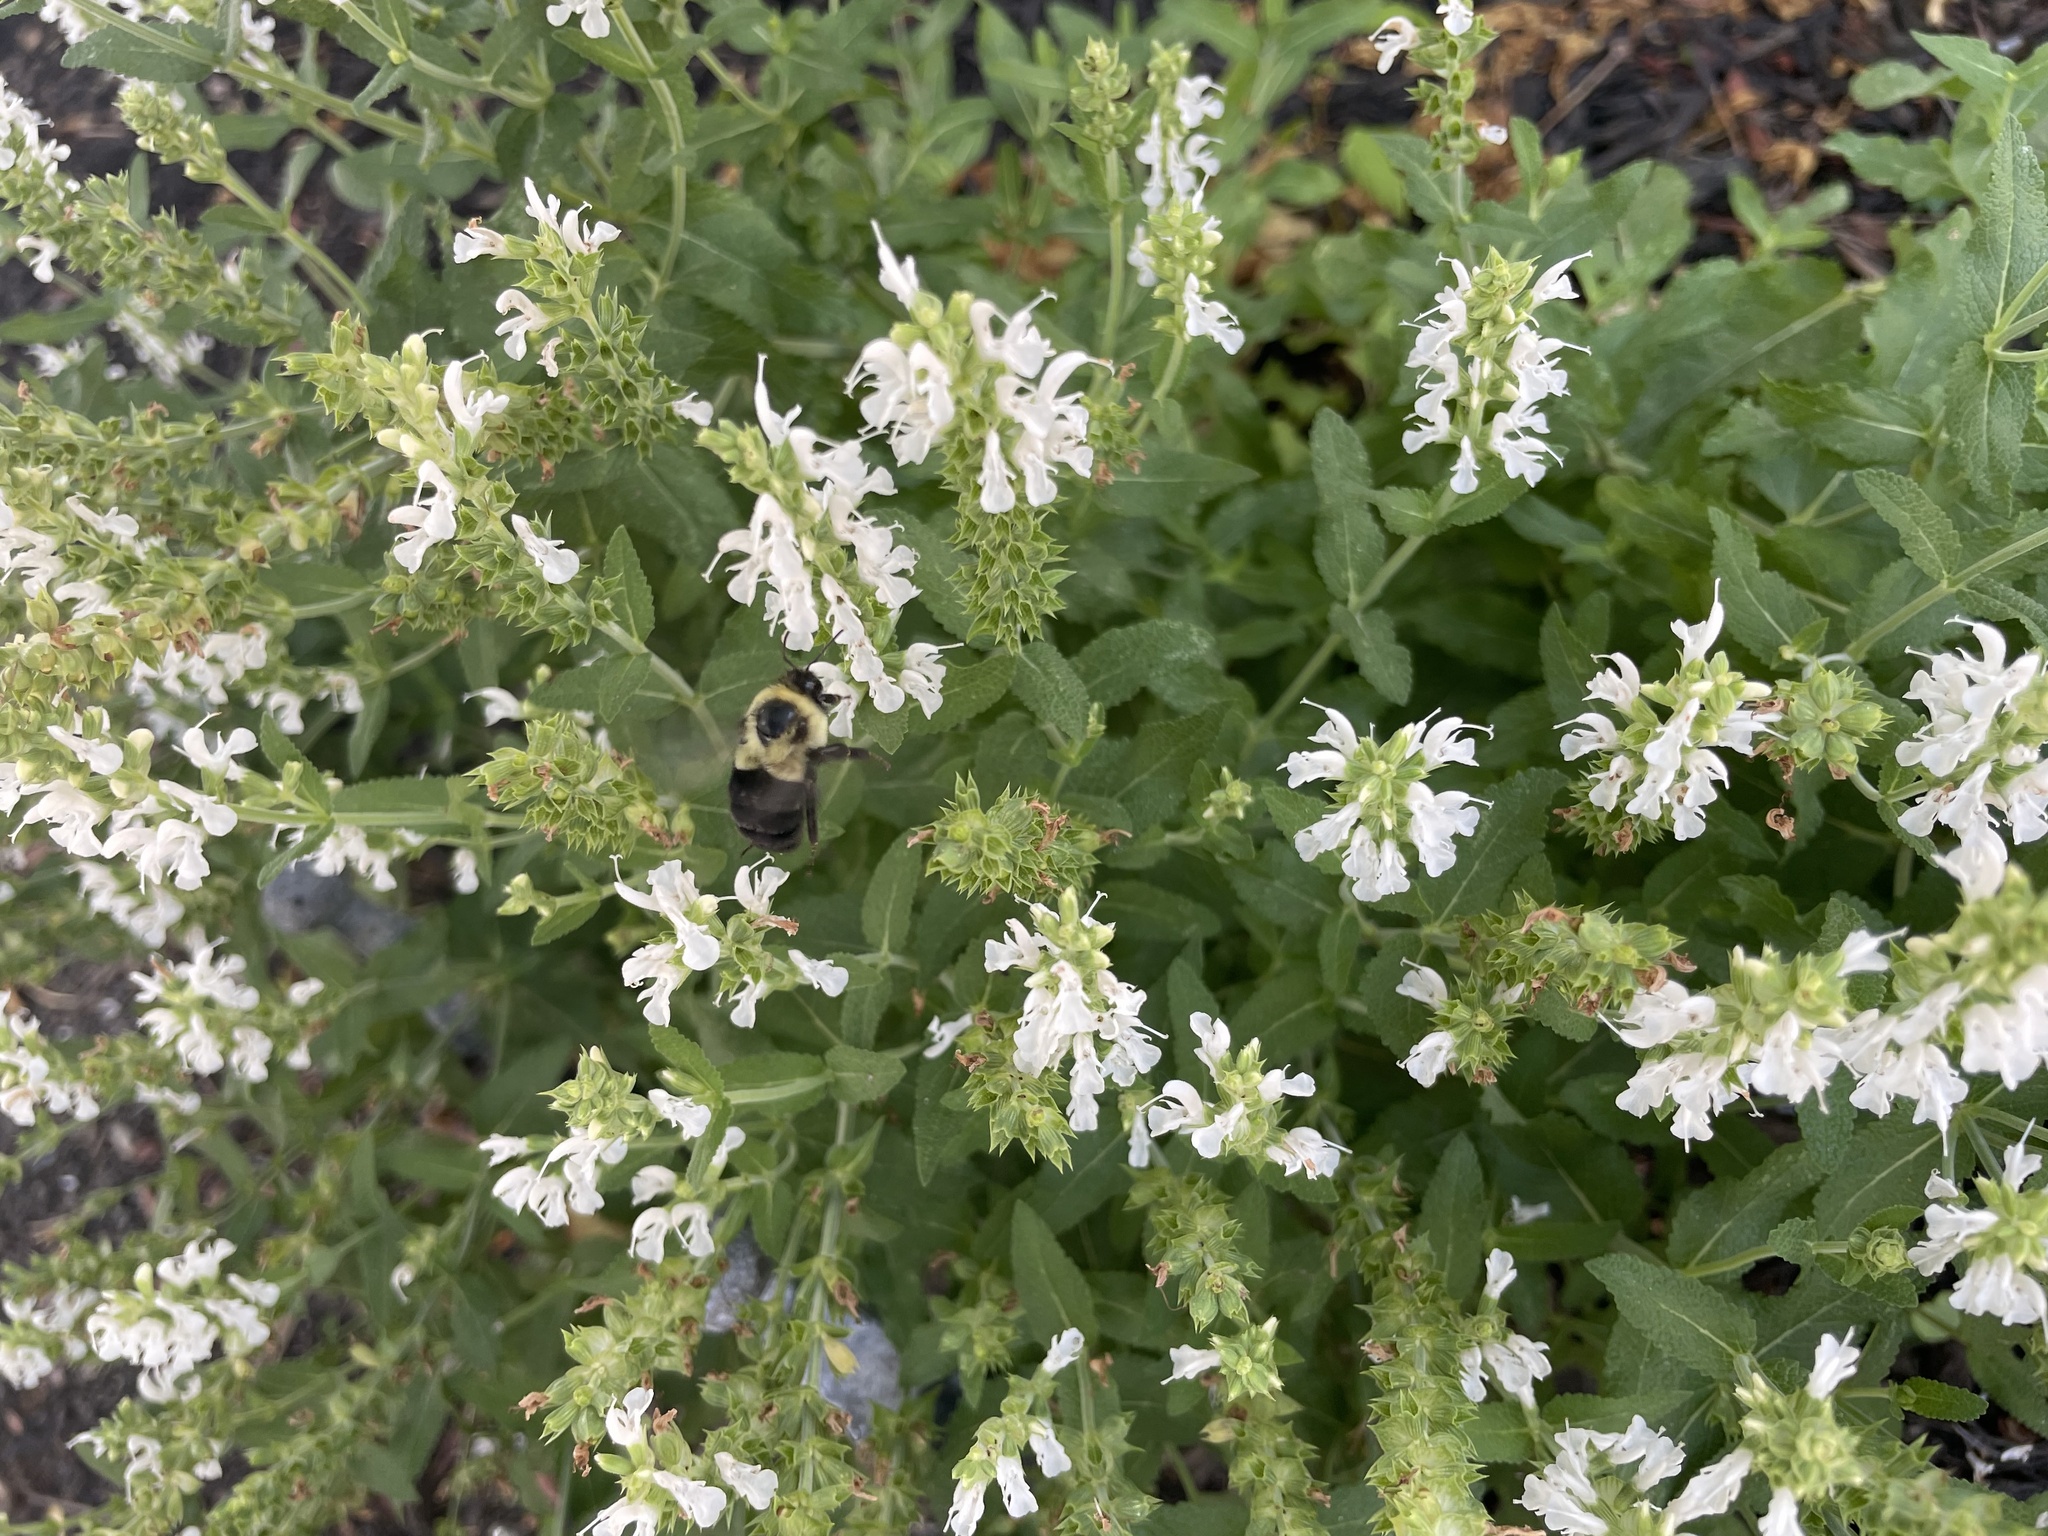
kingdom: Animalia
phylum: Arthropoda
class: Insecta
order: Hymenoptera
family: Apidae
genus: Bombus
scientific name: Bombus impatiens
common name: Common eastern bumble bee
